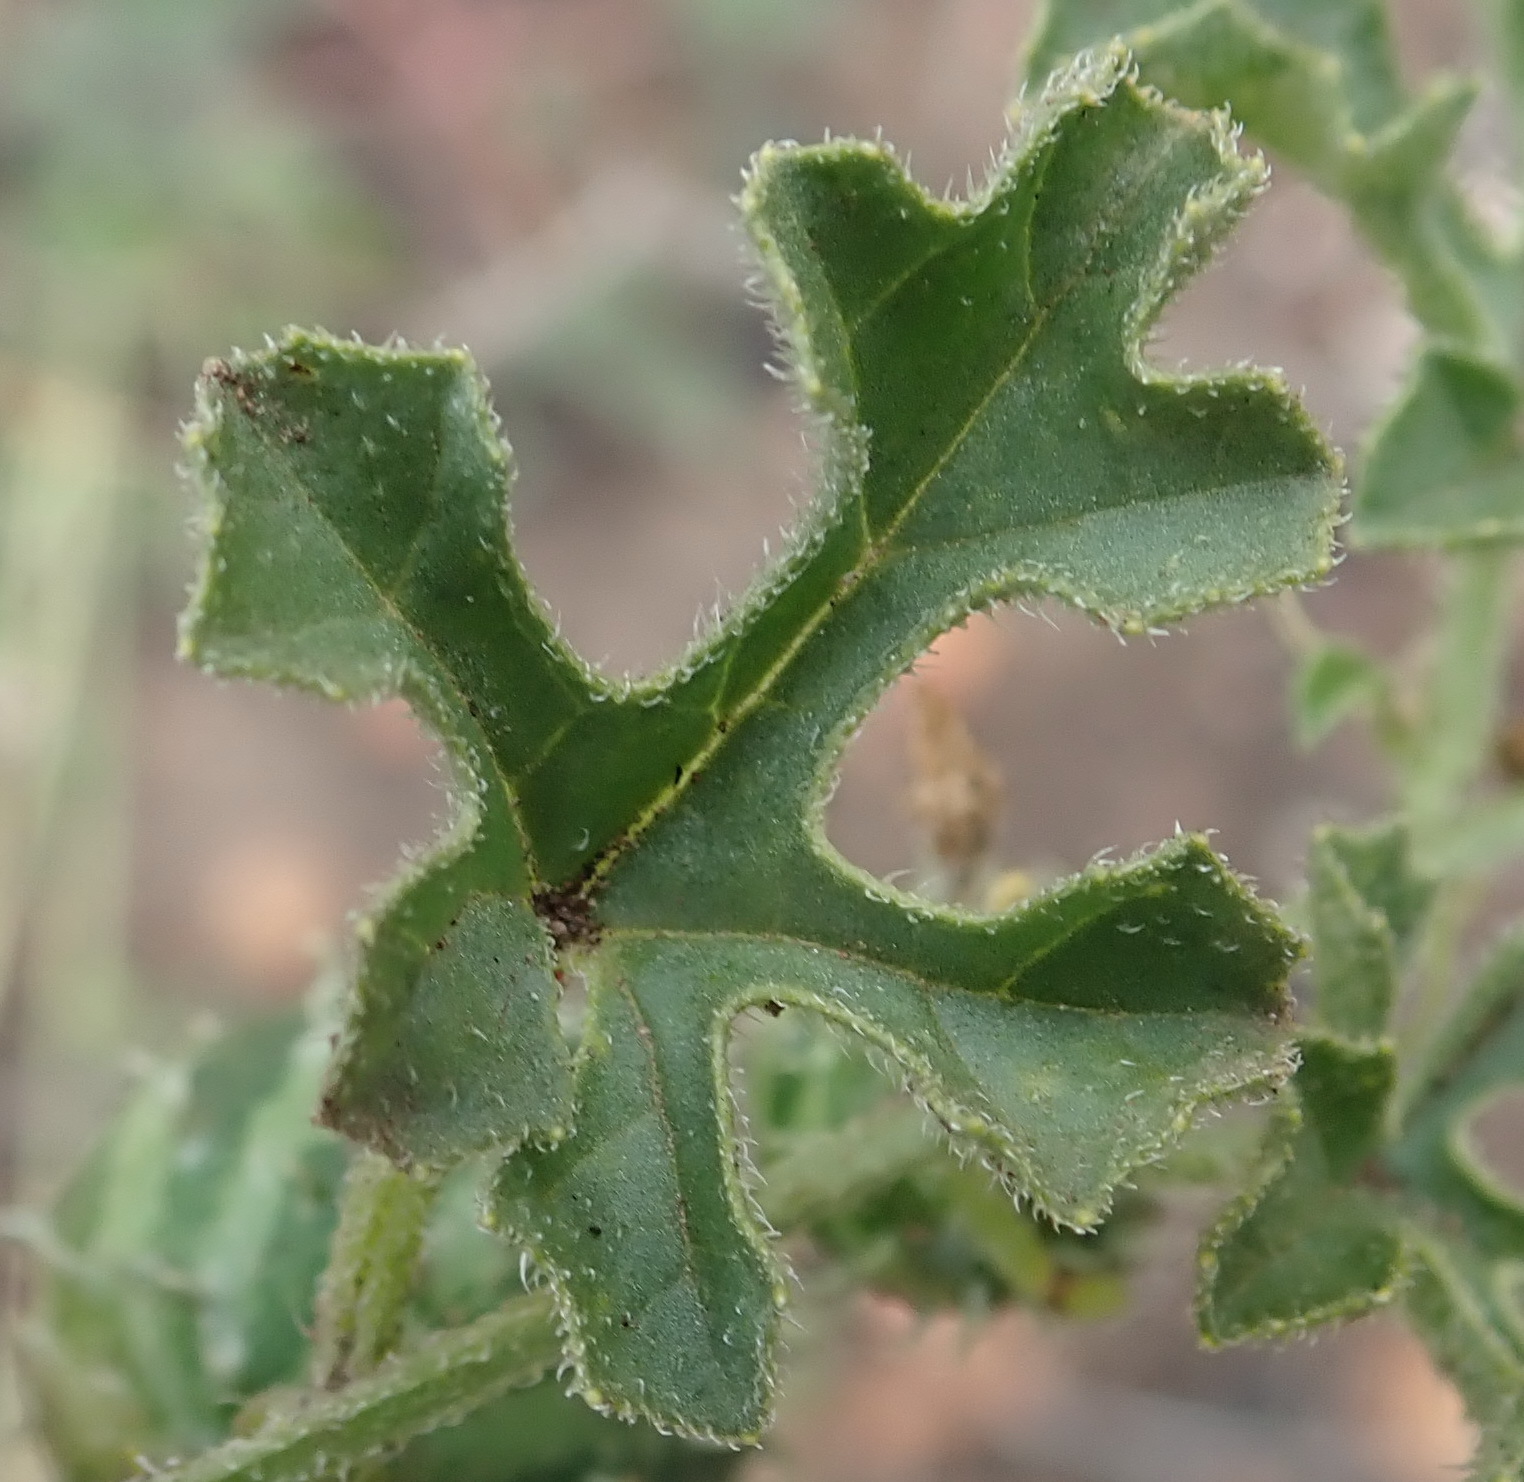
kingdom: Plantae
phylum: Tracheophyta
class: Magnoliopsida
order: Cucurbitales
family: Cucurbitaceae
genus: Cucumis
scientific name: Cucumis myriocarpus
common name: Gooseberry cucumber
